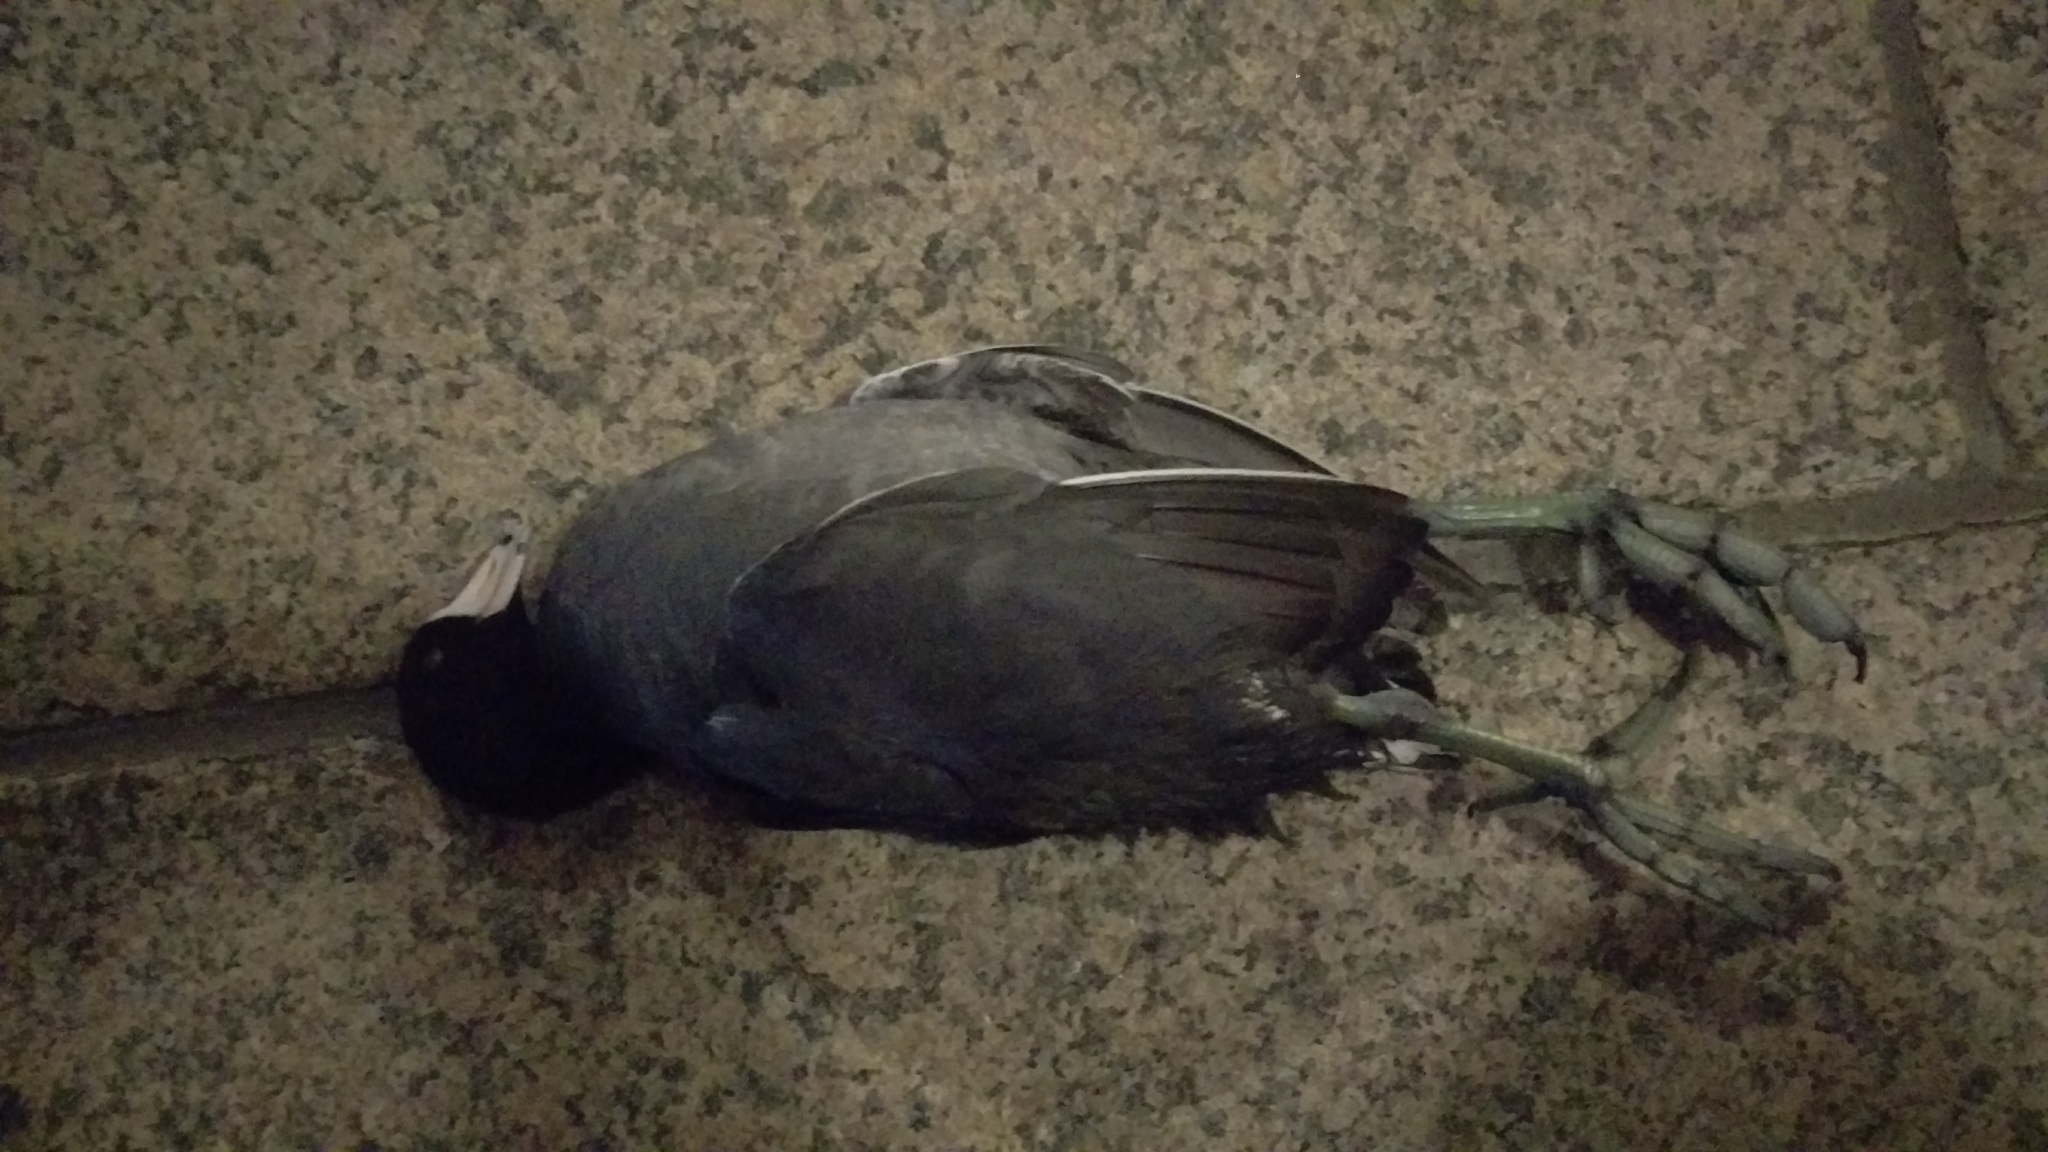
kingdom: Animalia
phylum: Chordata
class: Aves
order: Gruiformes
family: Rallidae
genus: Fulica
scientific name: Fulica americana
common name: American coot
